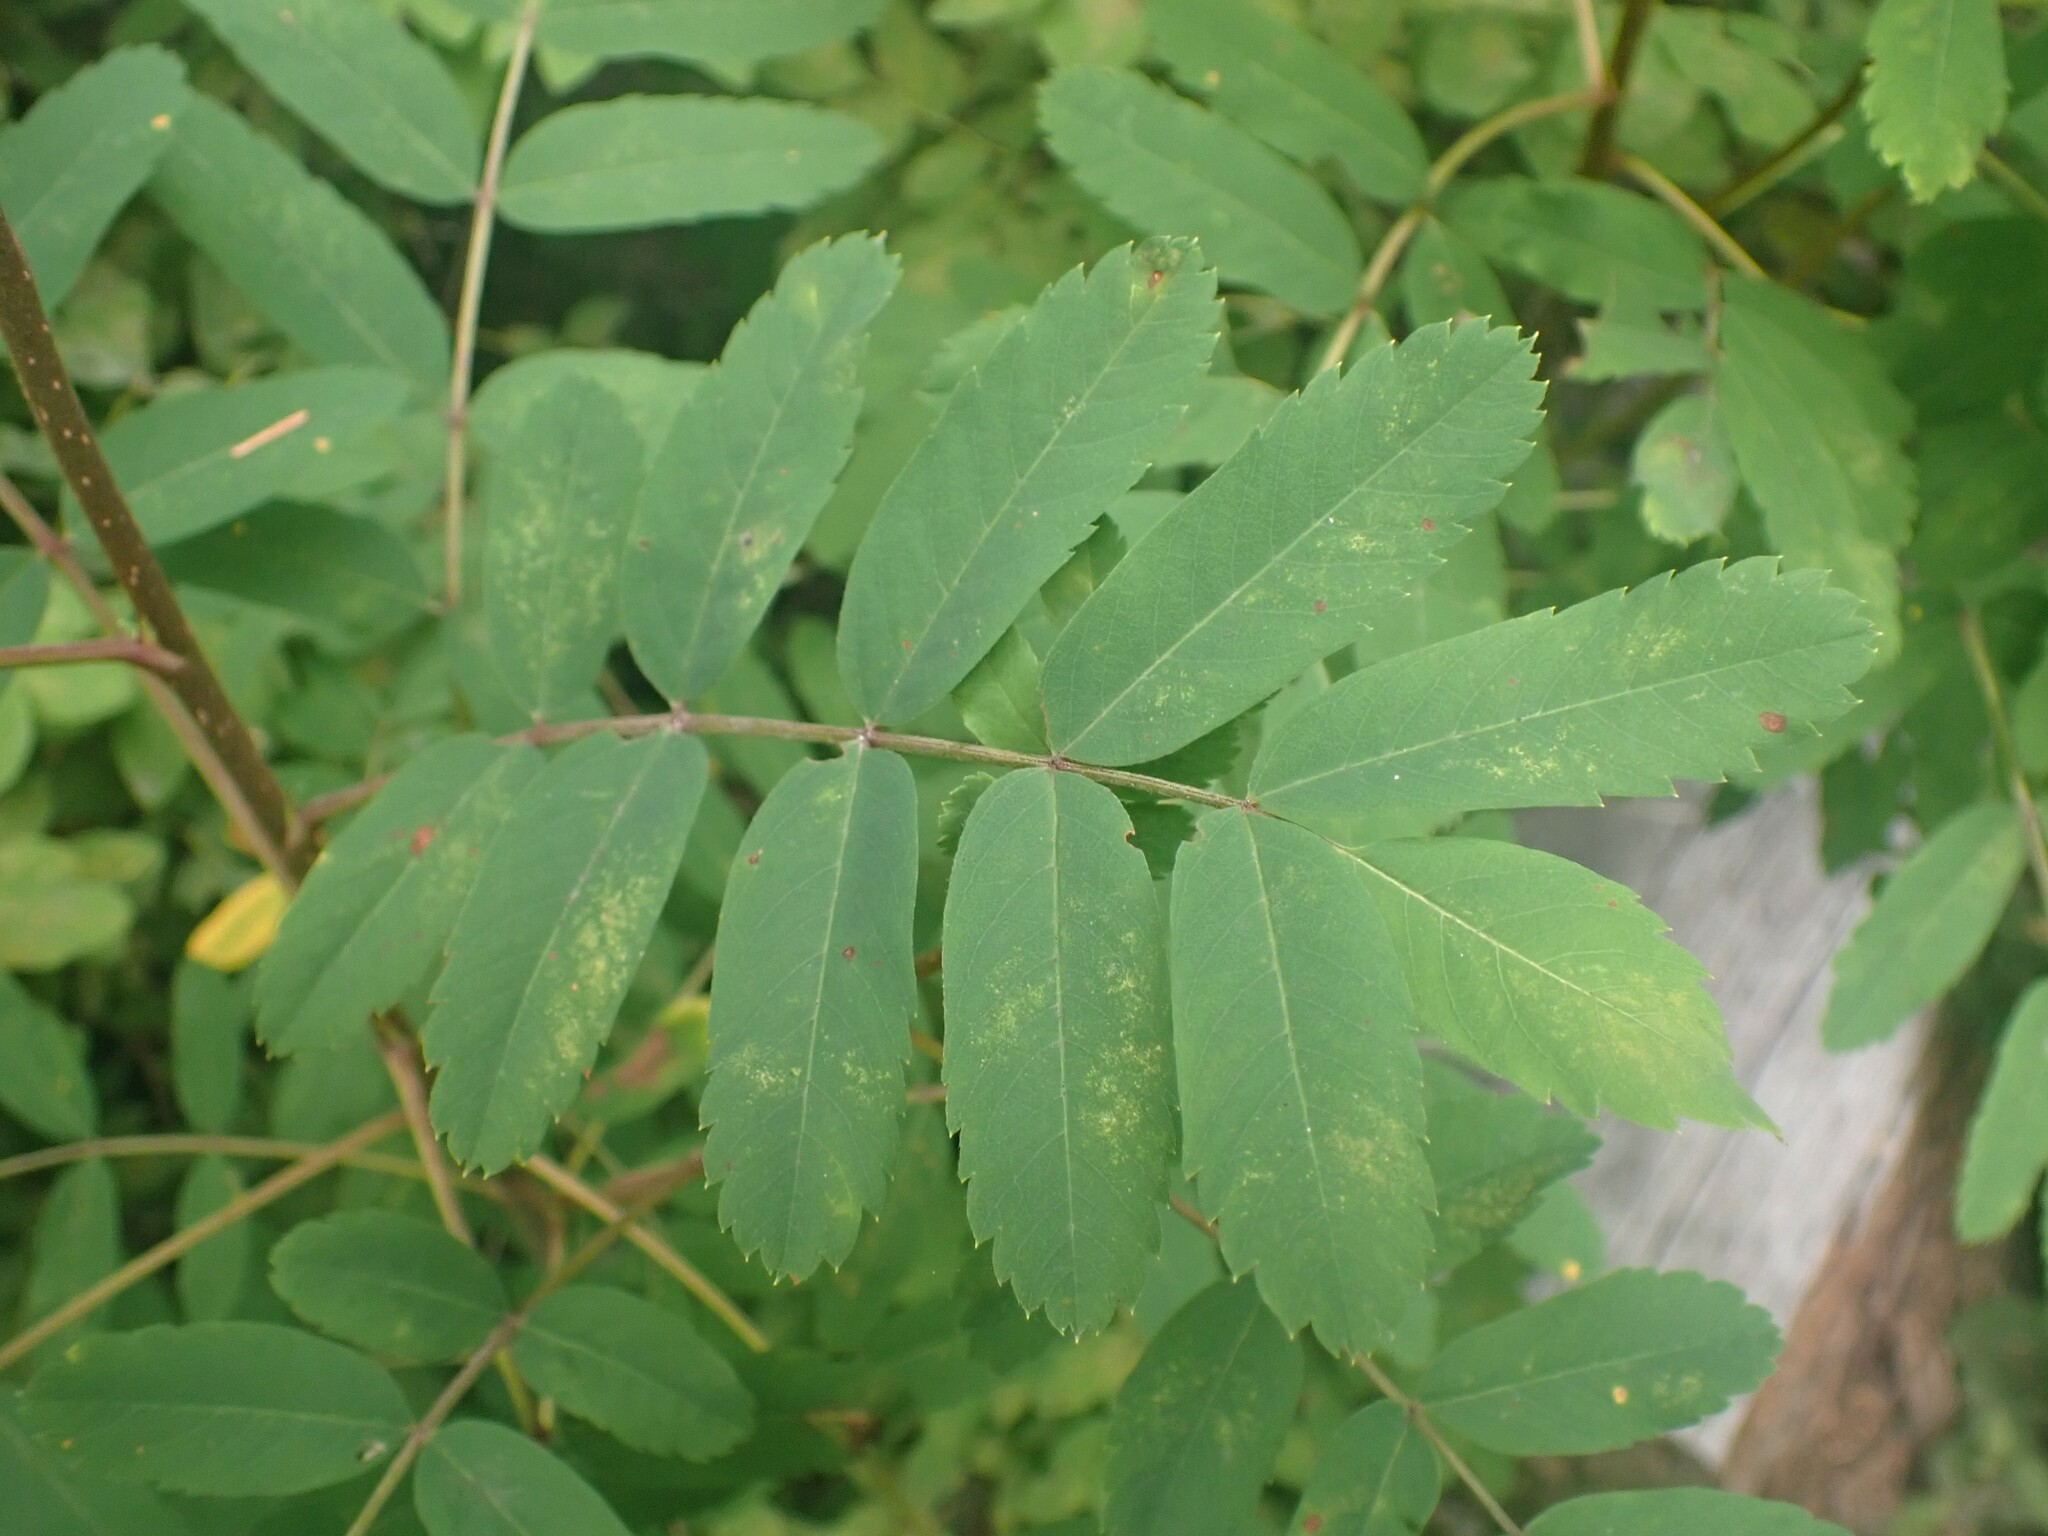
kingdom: Plantae
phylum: Tracheophyta
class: Magnoliopsida
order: Rosales
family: Rosaceae
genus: Sorbus
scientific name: Sorbus sitchensis
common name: Sitka mountain-ash
